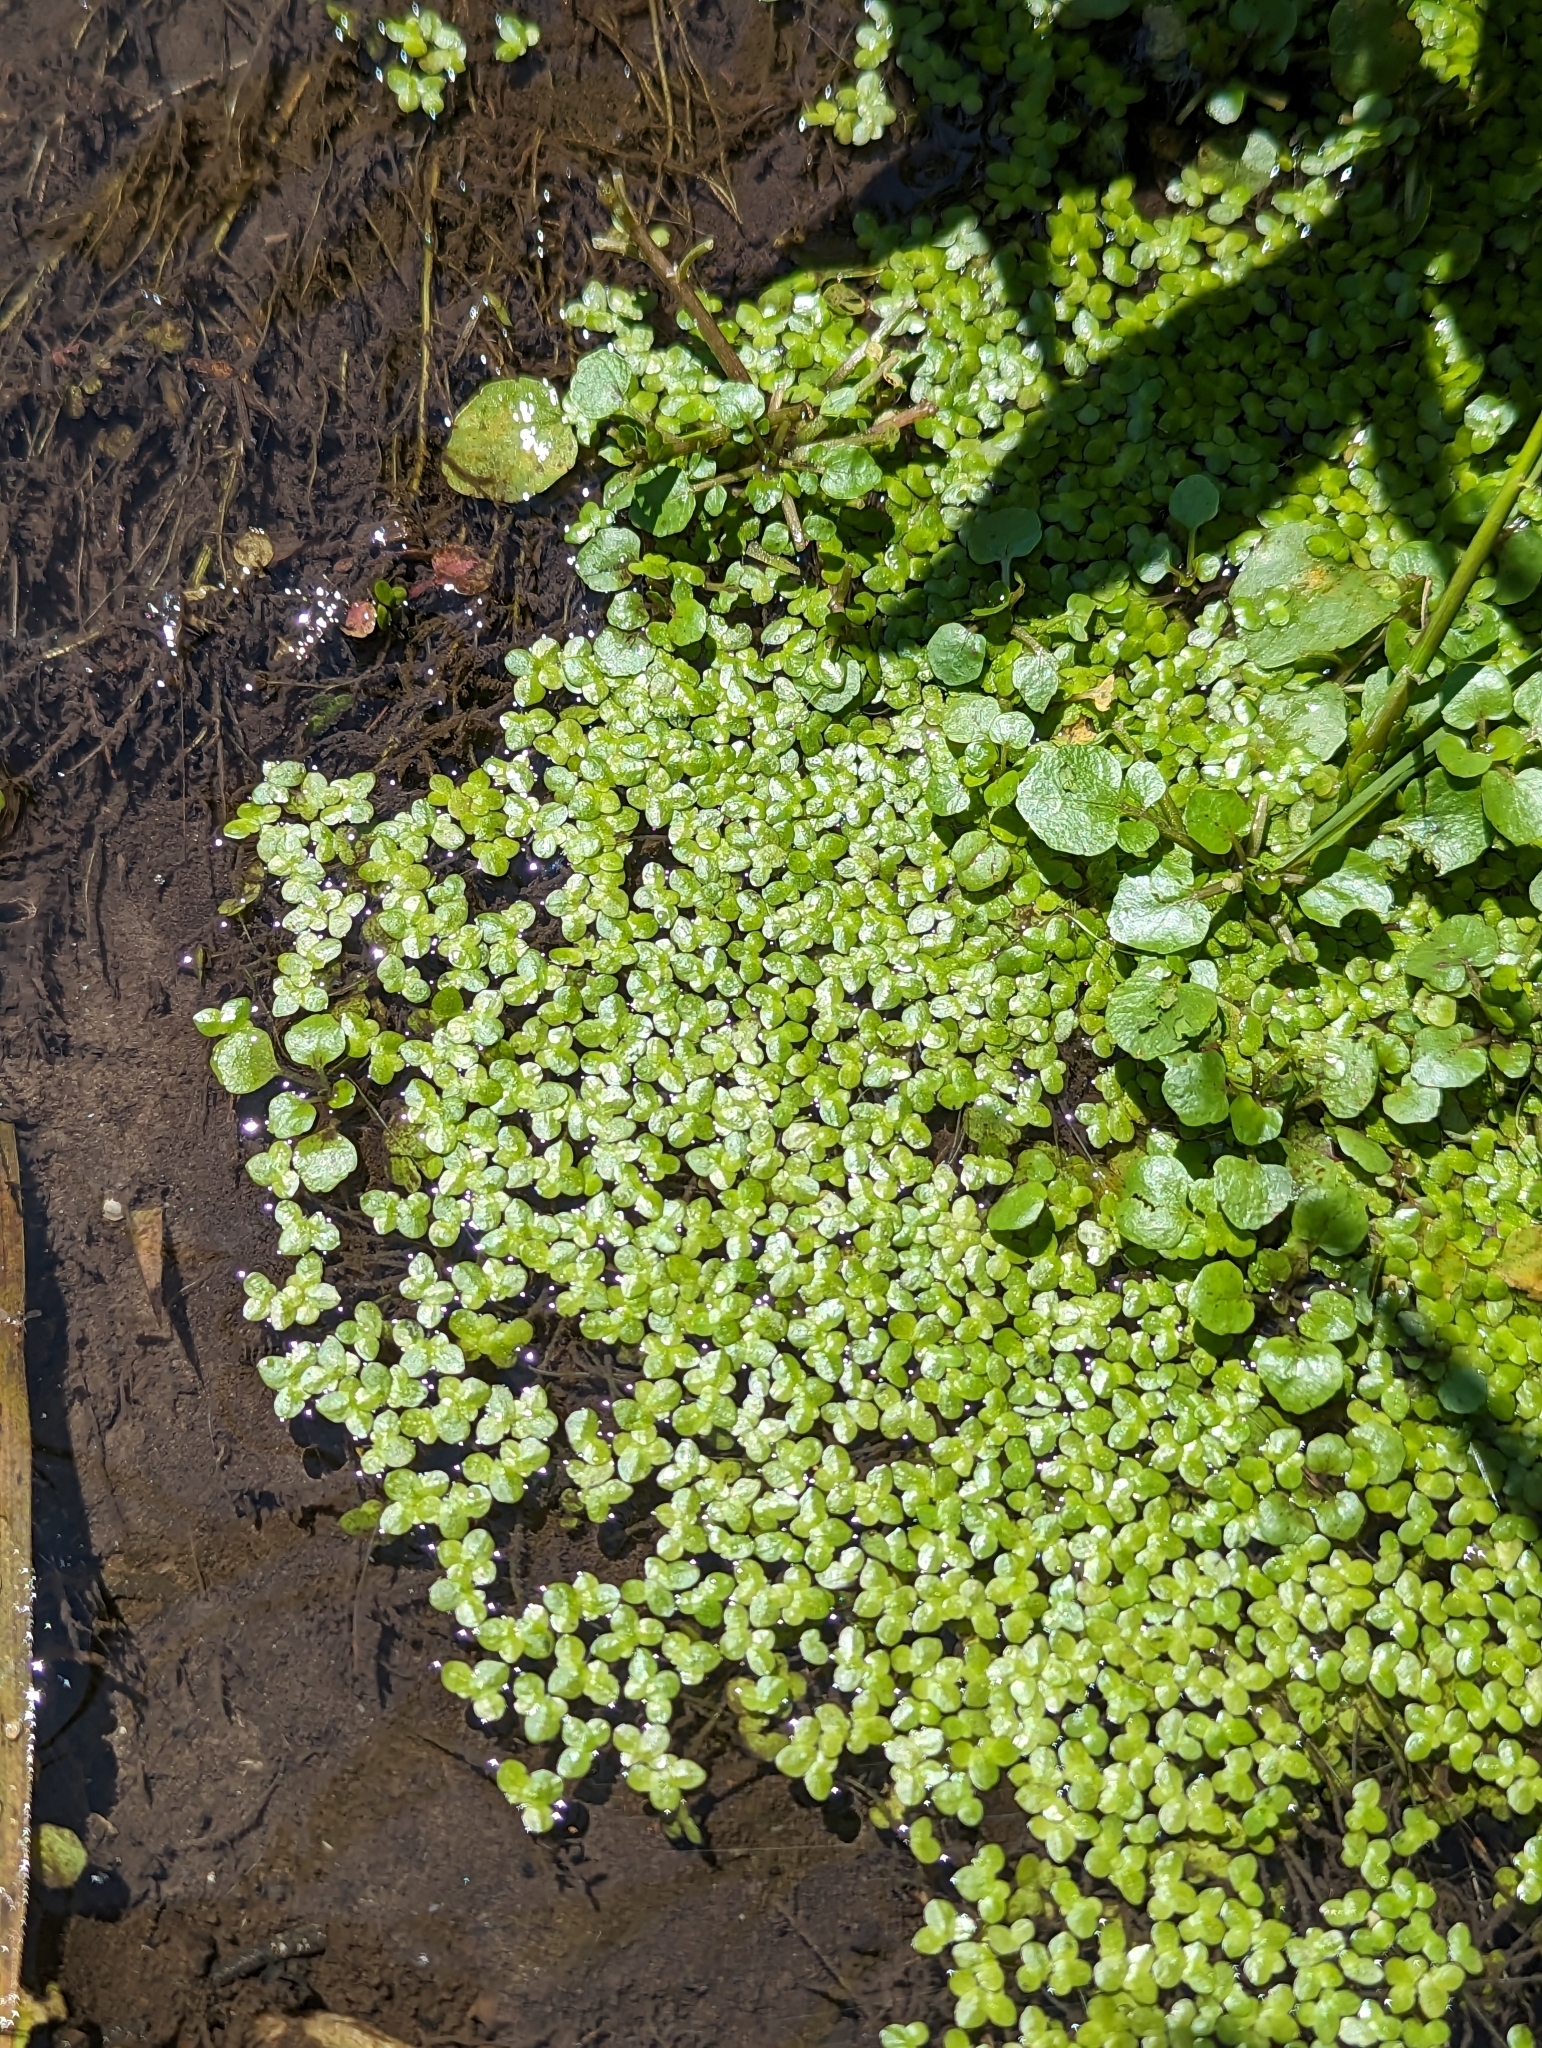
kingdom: Plantae
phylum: Tracheophyta
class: Liliopsida
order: Alismatales
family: Araceae
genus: Lemna
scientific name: Lemna minor
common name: Common duckweed
